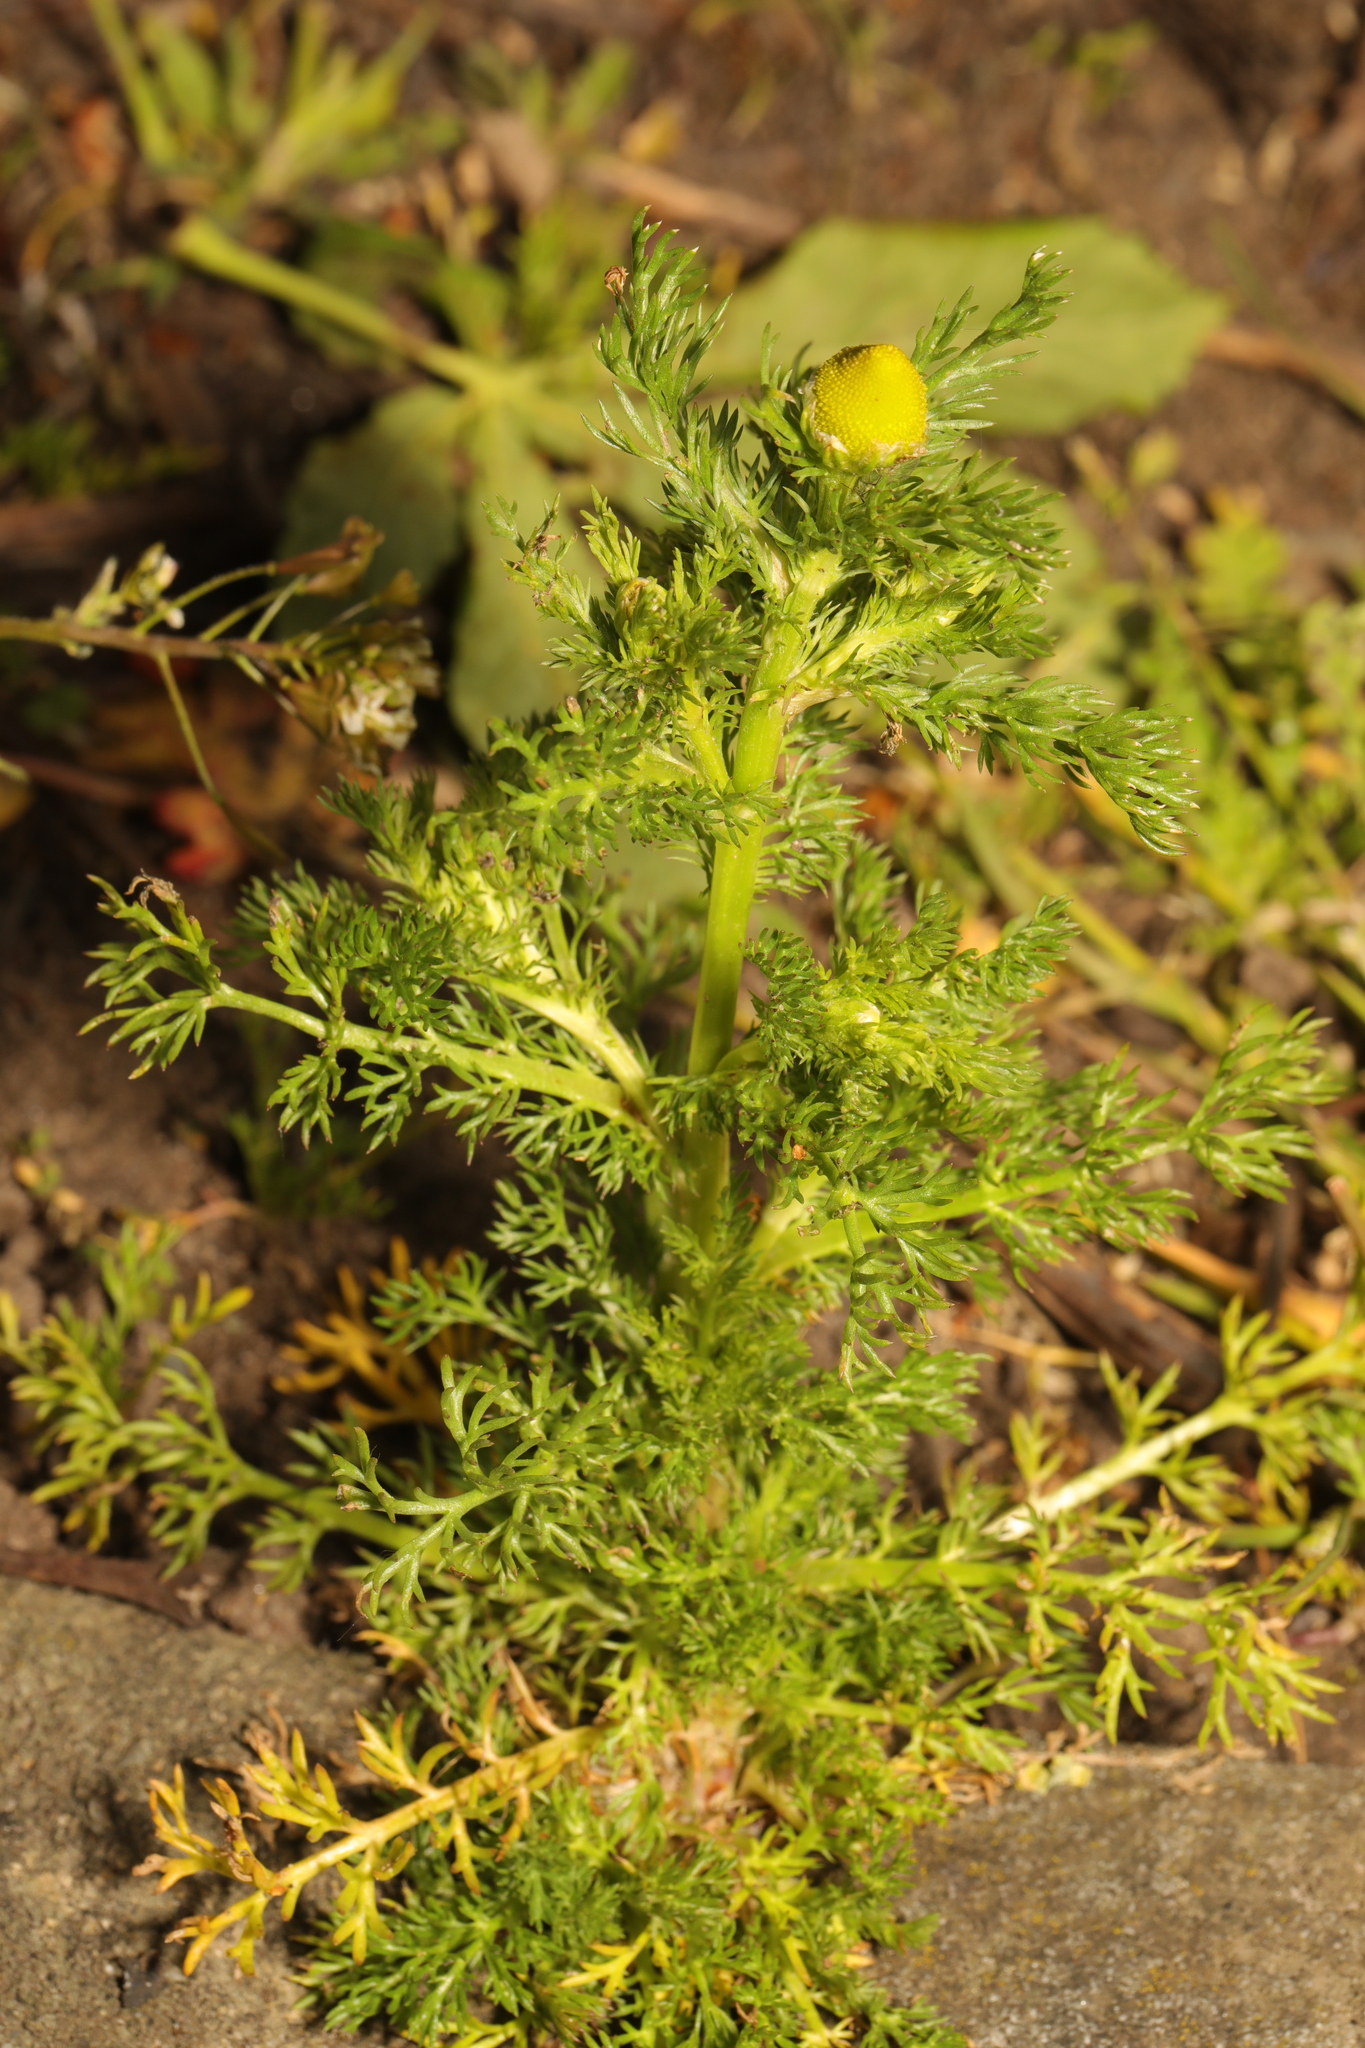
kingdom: Plantae
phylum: Tracheophyta
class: Magnoliopsida
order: Asterales
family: Asteraceae
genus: Matricaria
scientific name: Matricaria discoidea
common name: Disc mayweed
